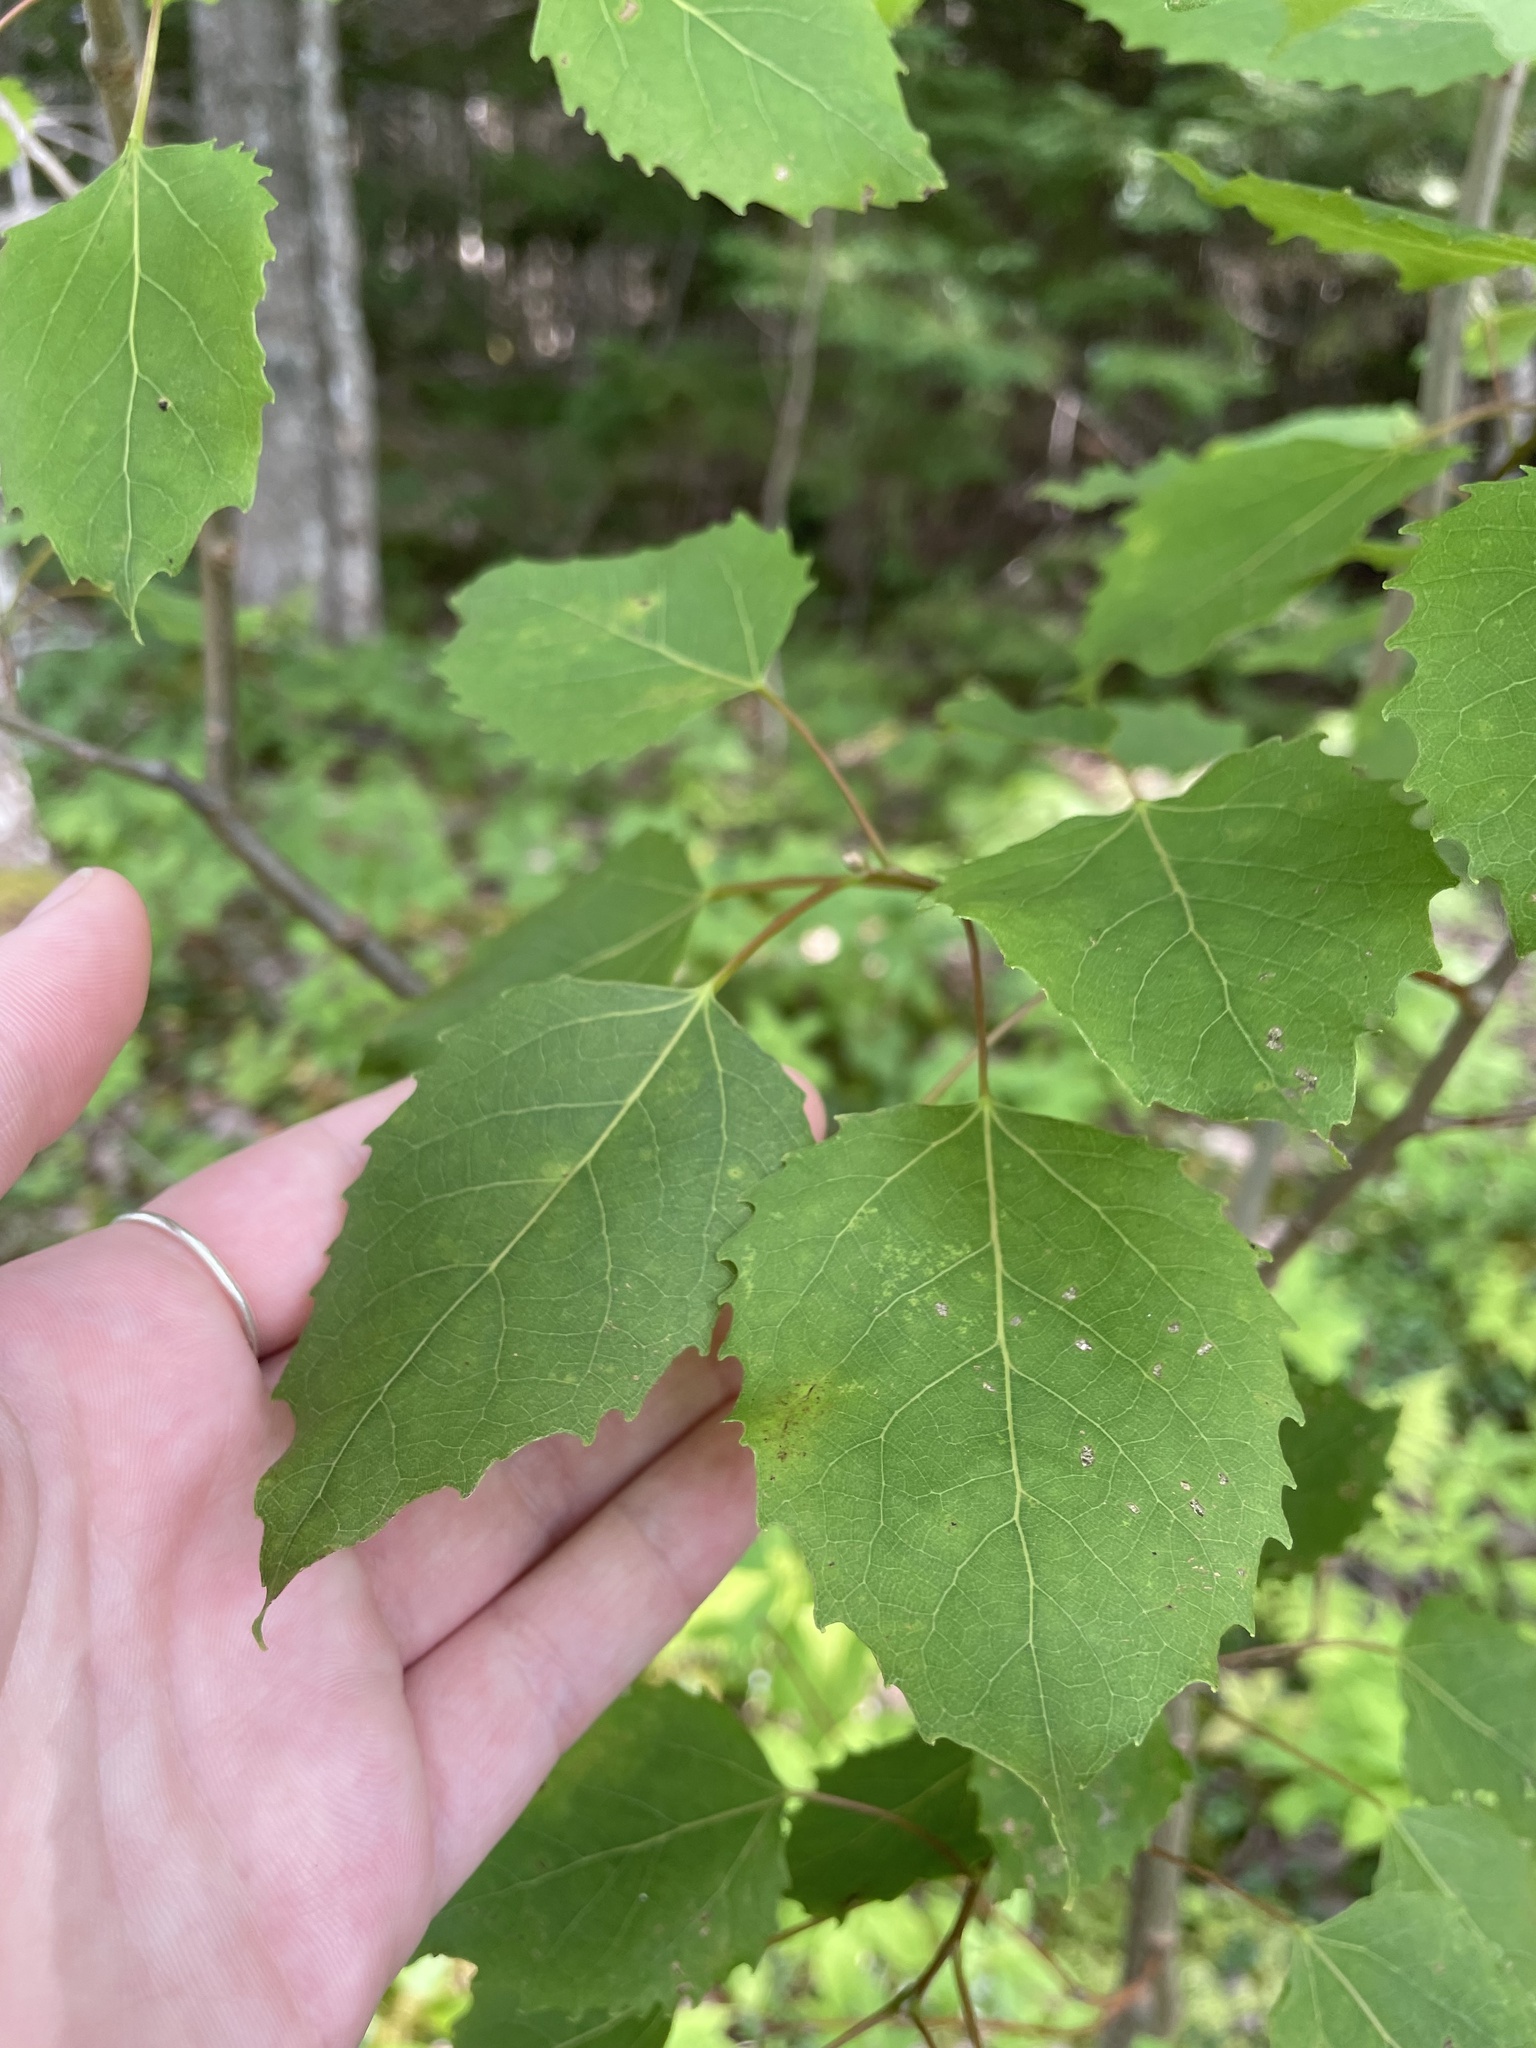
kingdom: Plantae
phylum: Tracheophyta
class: Magnoliopsida
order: Malpighiales
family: Salicaceae
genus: Populus
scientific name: Populus grandidentata
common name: Bigtooth aspen
